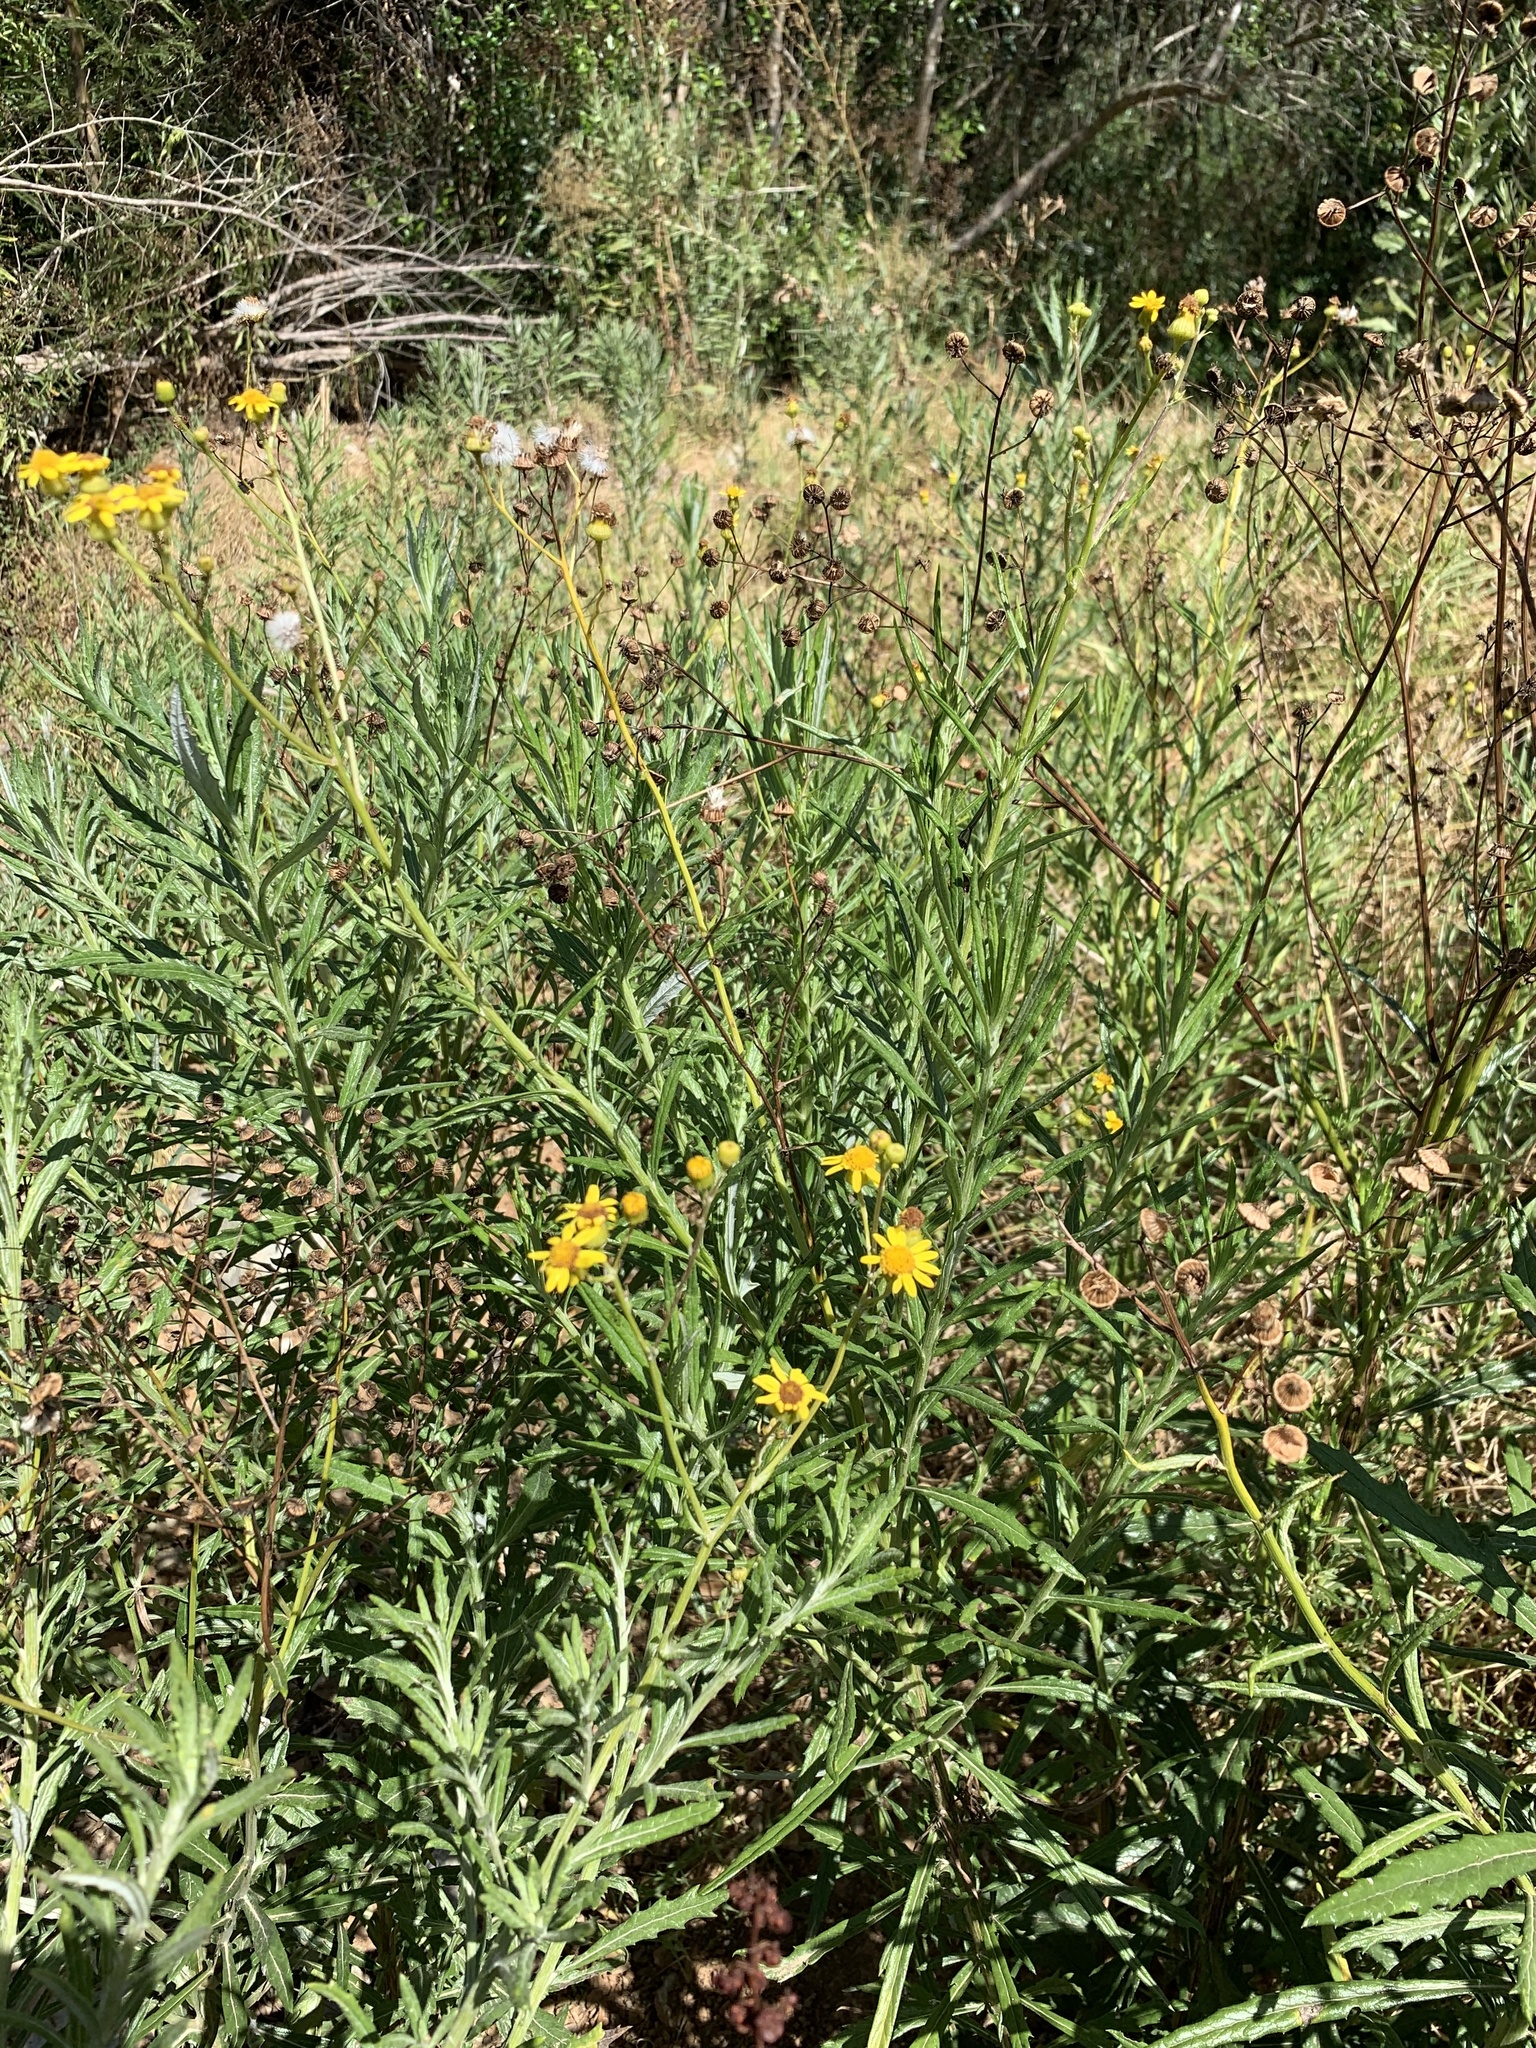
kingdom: Plantae
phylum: Tracheophyta
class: Magnoliopsida
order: Asterales
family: Asteraceae
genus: Senecio
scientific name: Senecio pterophorus
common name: Shoddy ragwort
